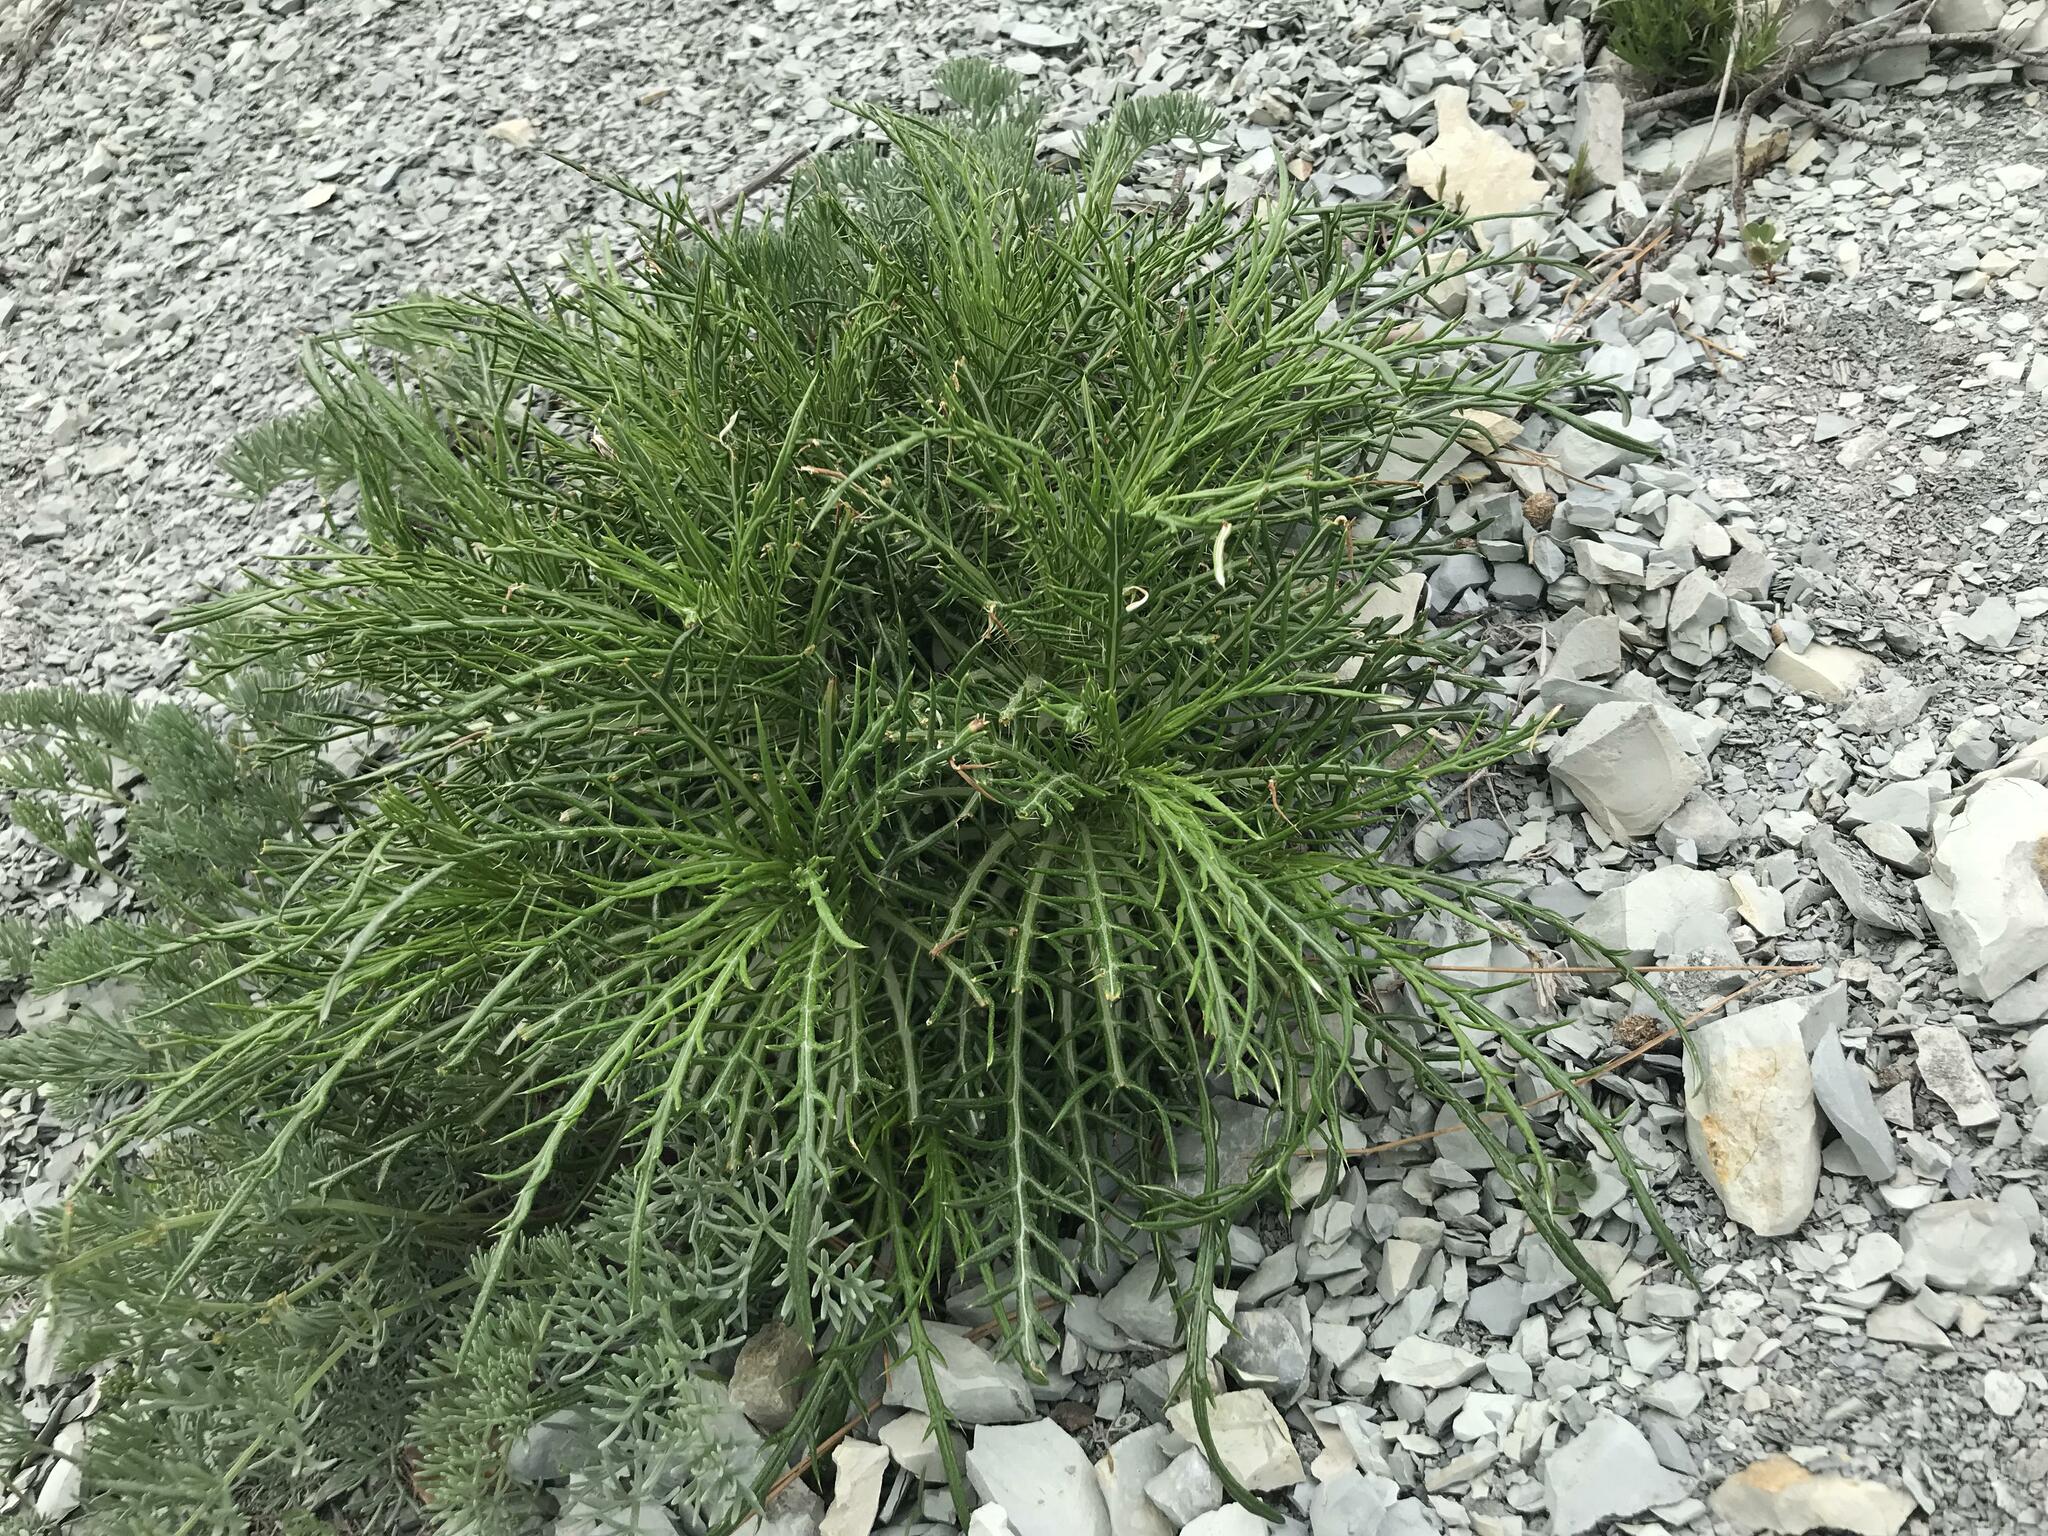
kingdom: Plantae
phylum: Tracheophyta
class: Magnoliopsida
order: Asterales
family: Asteraceae
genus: Ptilostemon
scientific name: Ptilostemon echinocephalus
